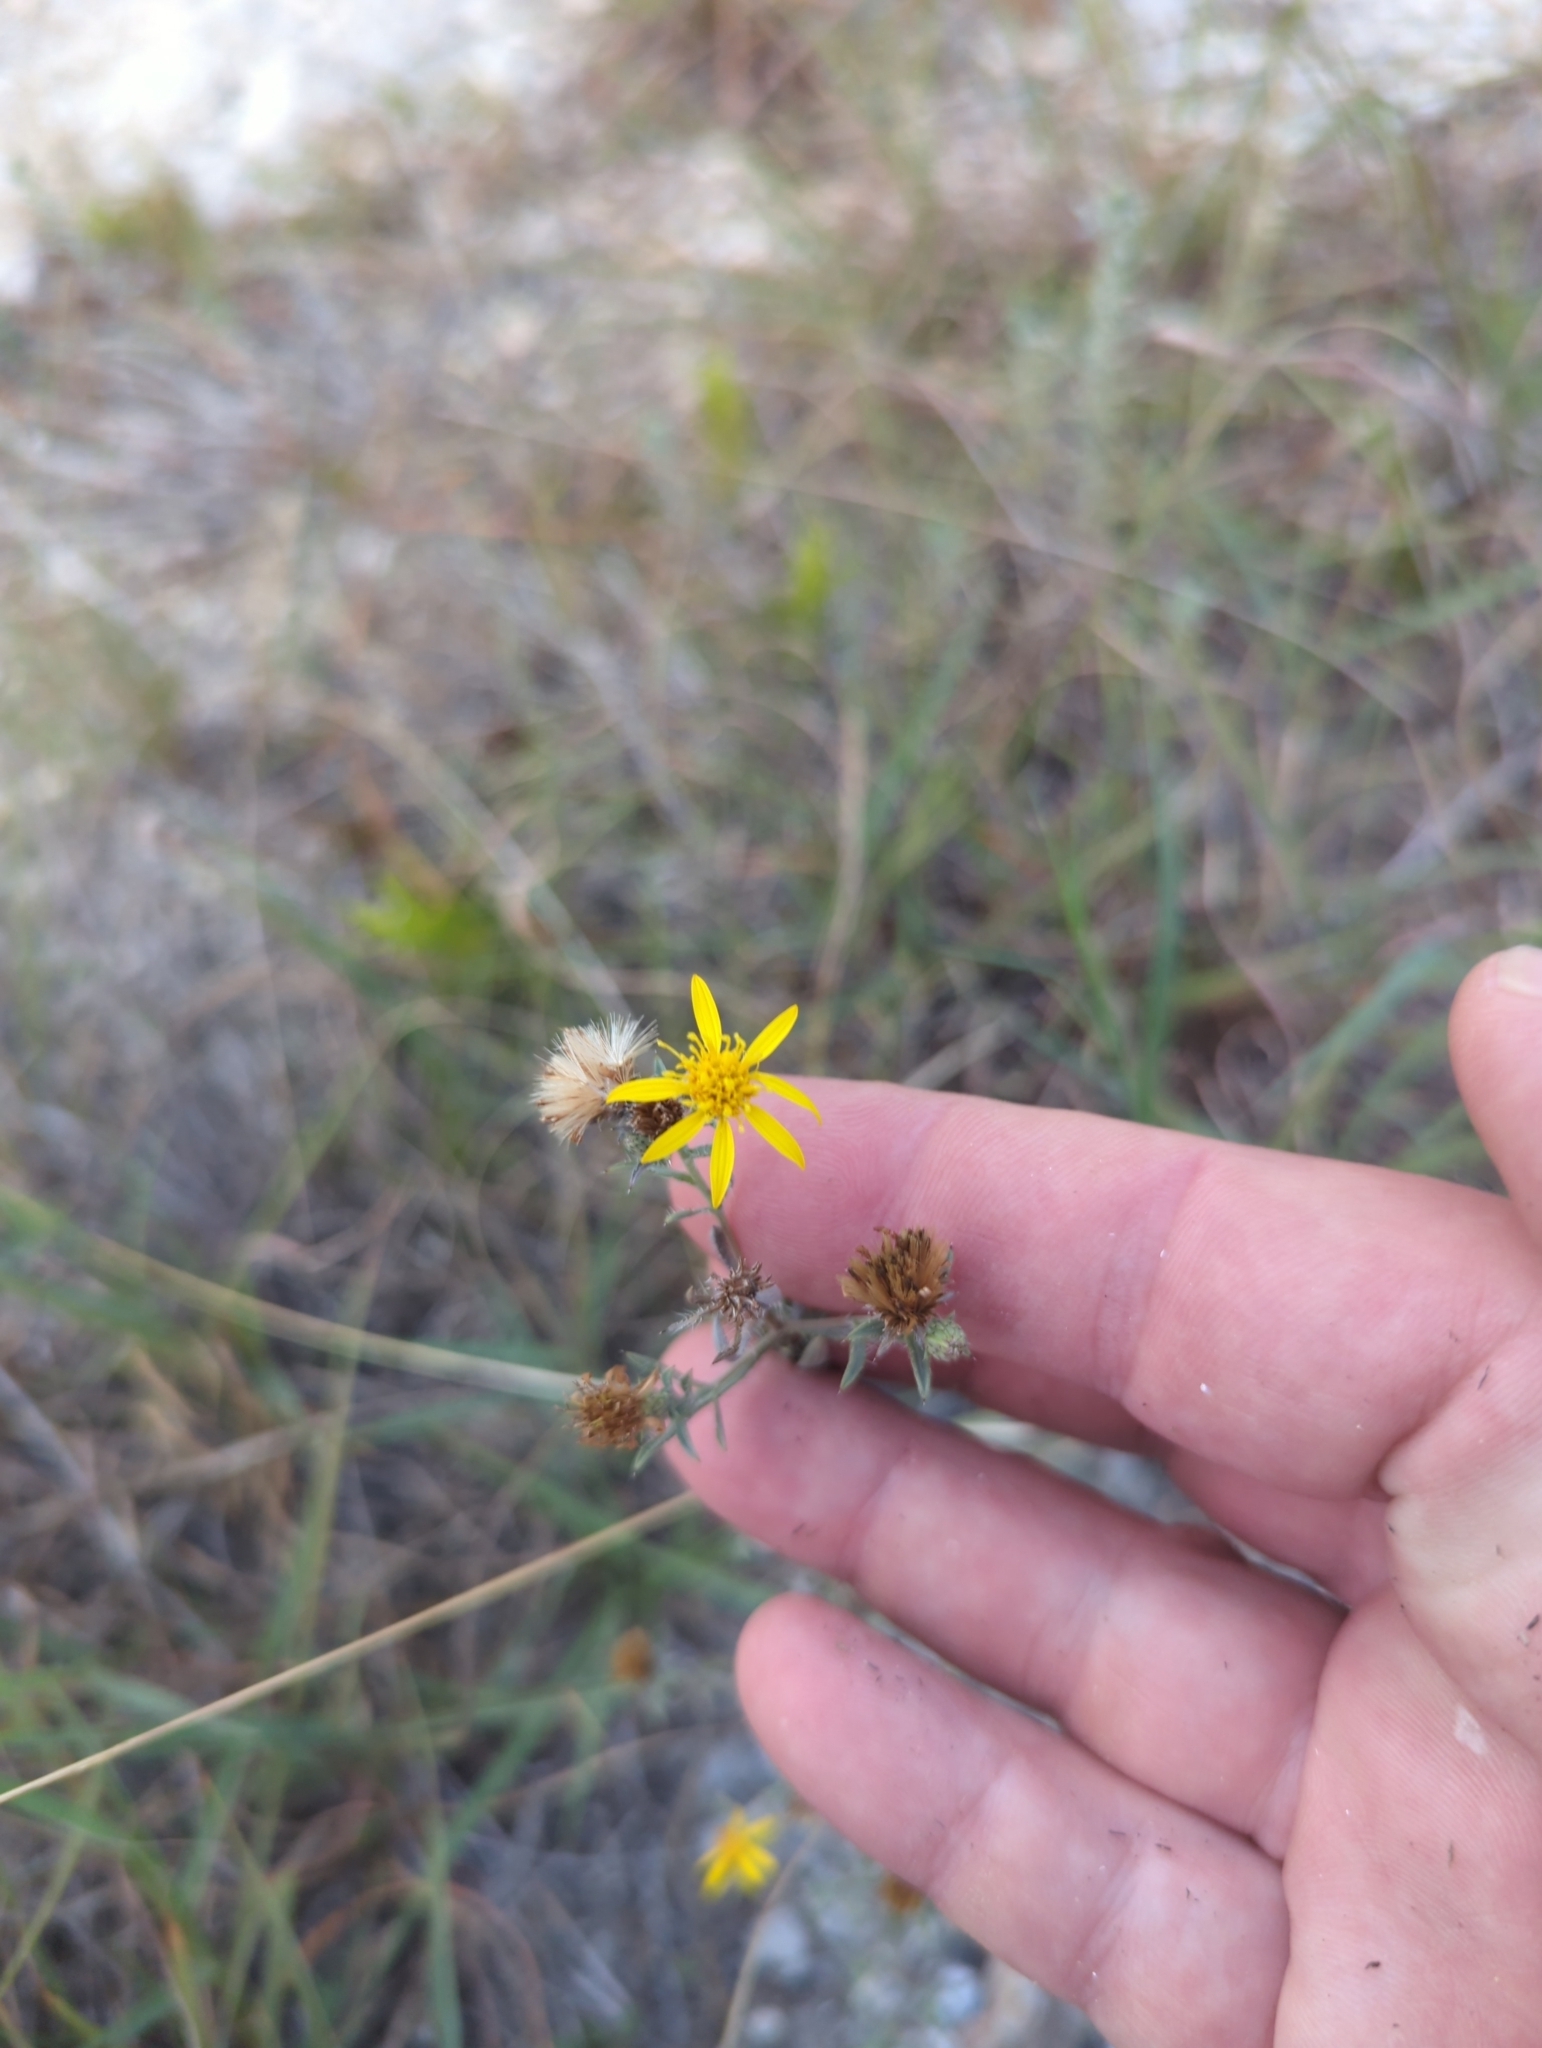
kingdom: Plantae
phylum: Tracheophyta
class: Magnoliopsida
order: Asterales
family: Asteraceae
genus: Heterotheca
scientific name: Heterotheca canescens
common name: Hoary golden-aster
